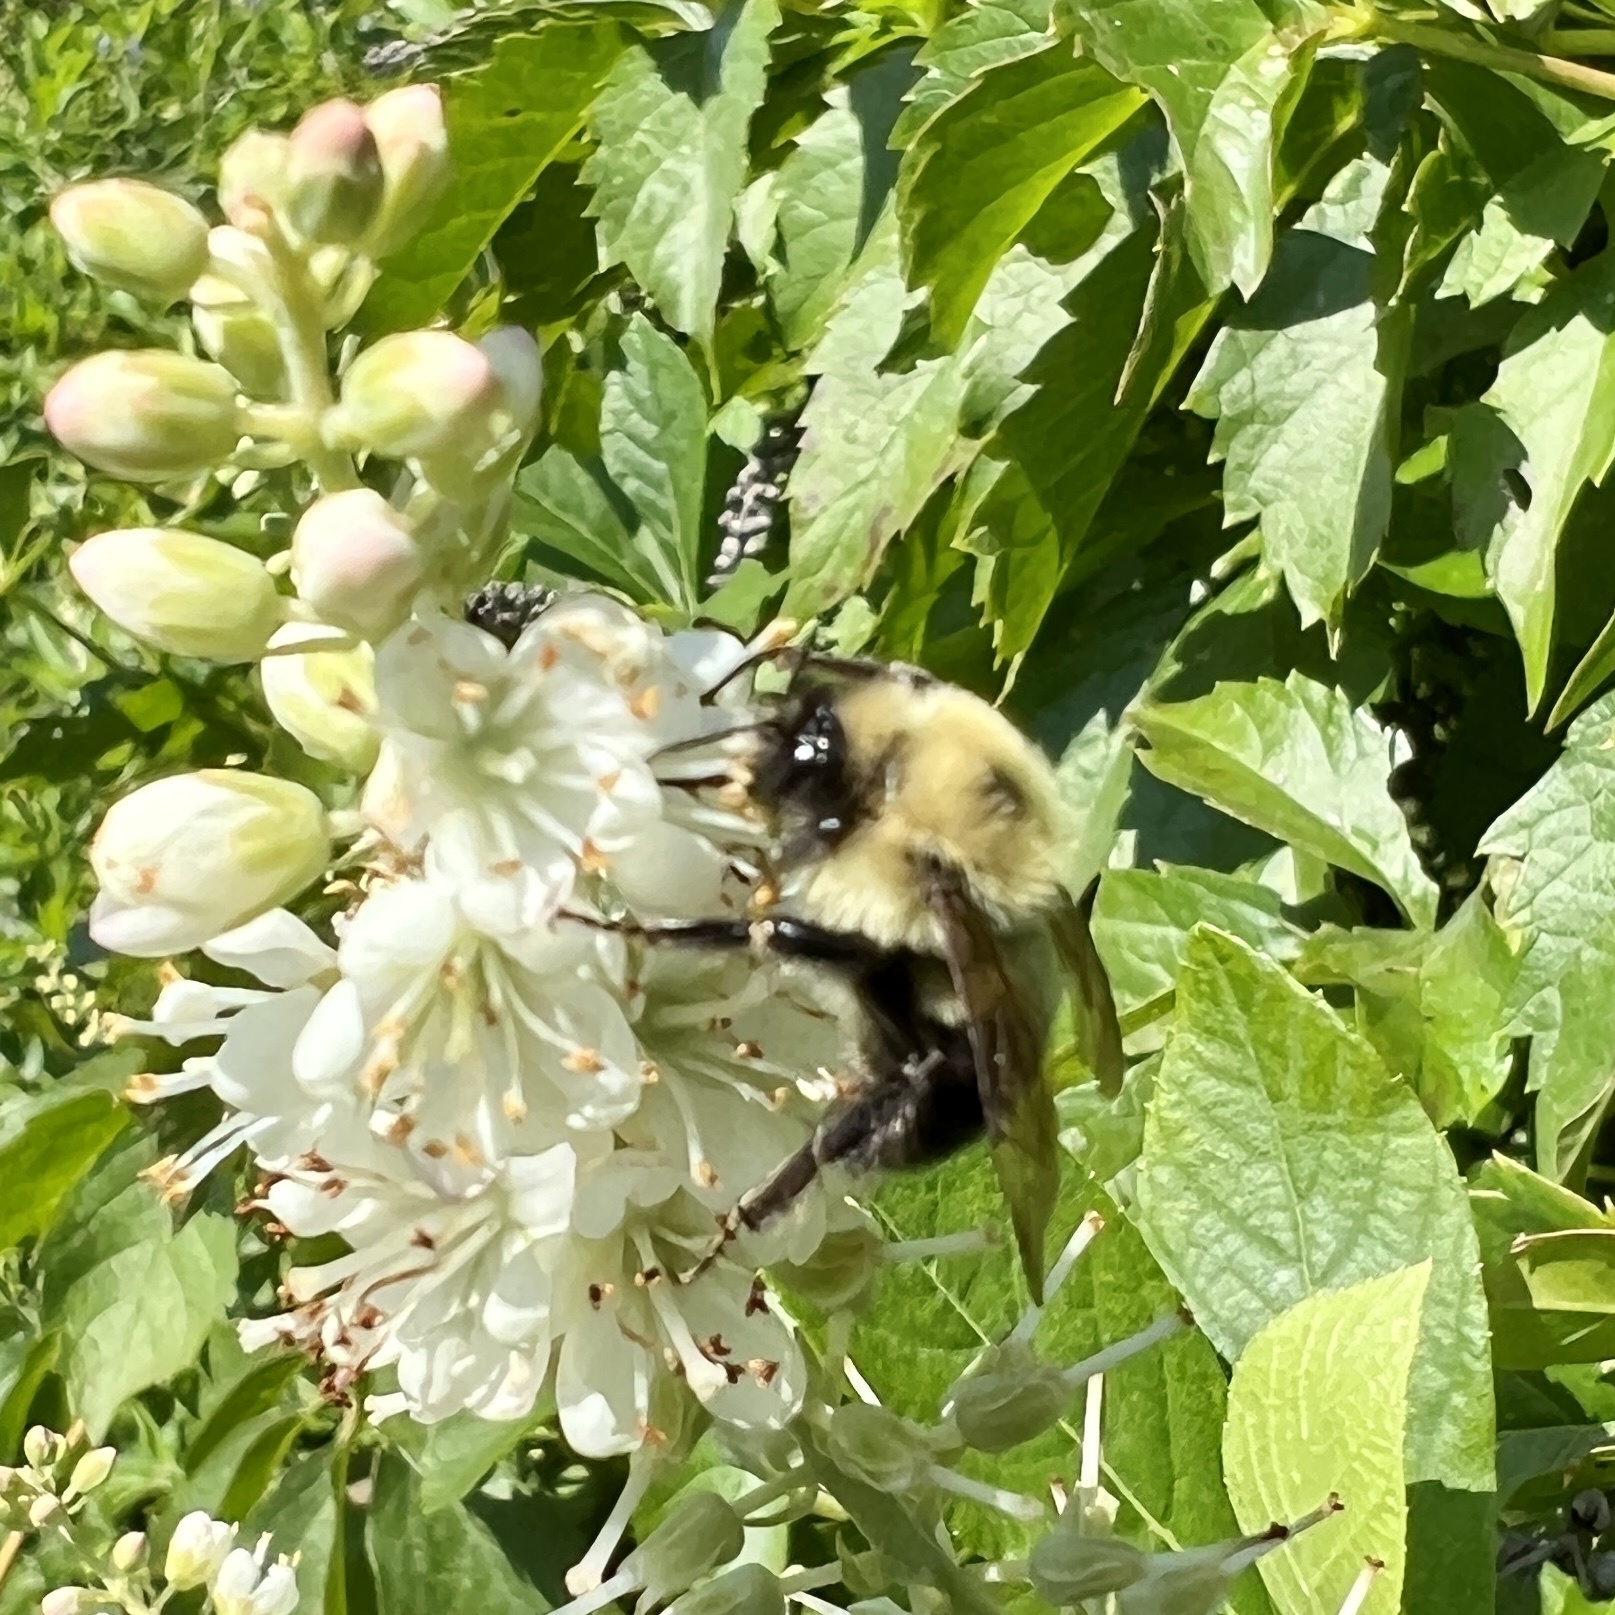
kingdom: Animalia
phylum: Arthropoda
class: Insecta
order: Hymenoptera
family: Apidae
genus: Bombus
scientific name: Bombus bimaculatus
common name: Two-spotted bumble bee
